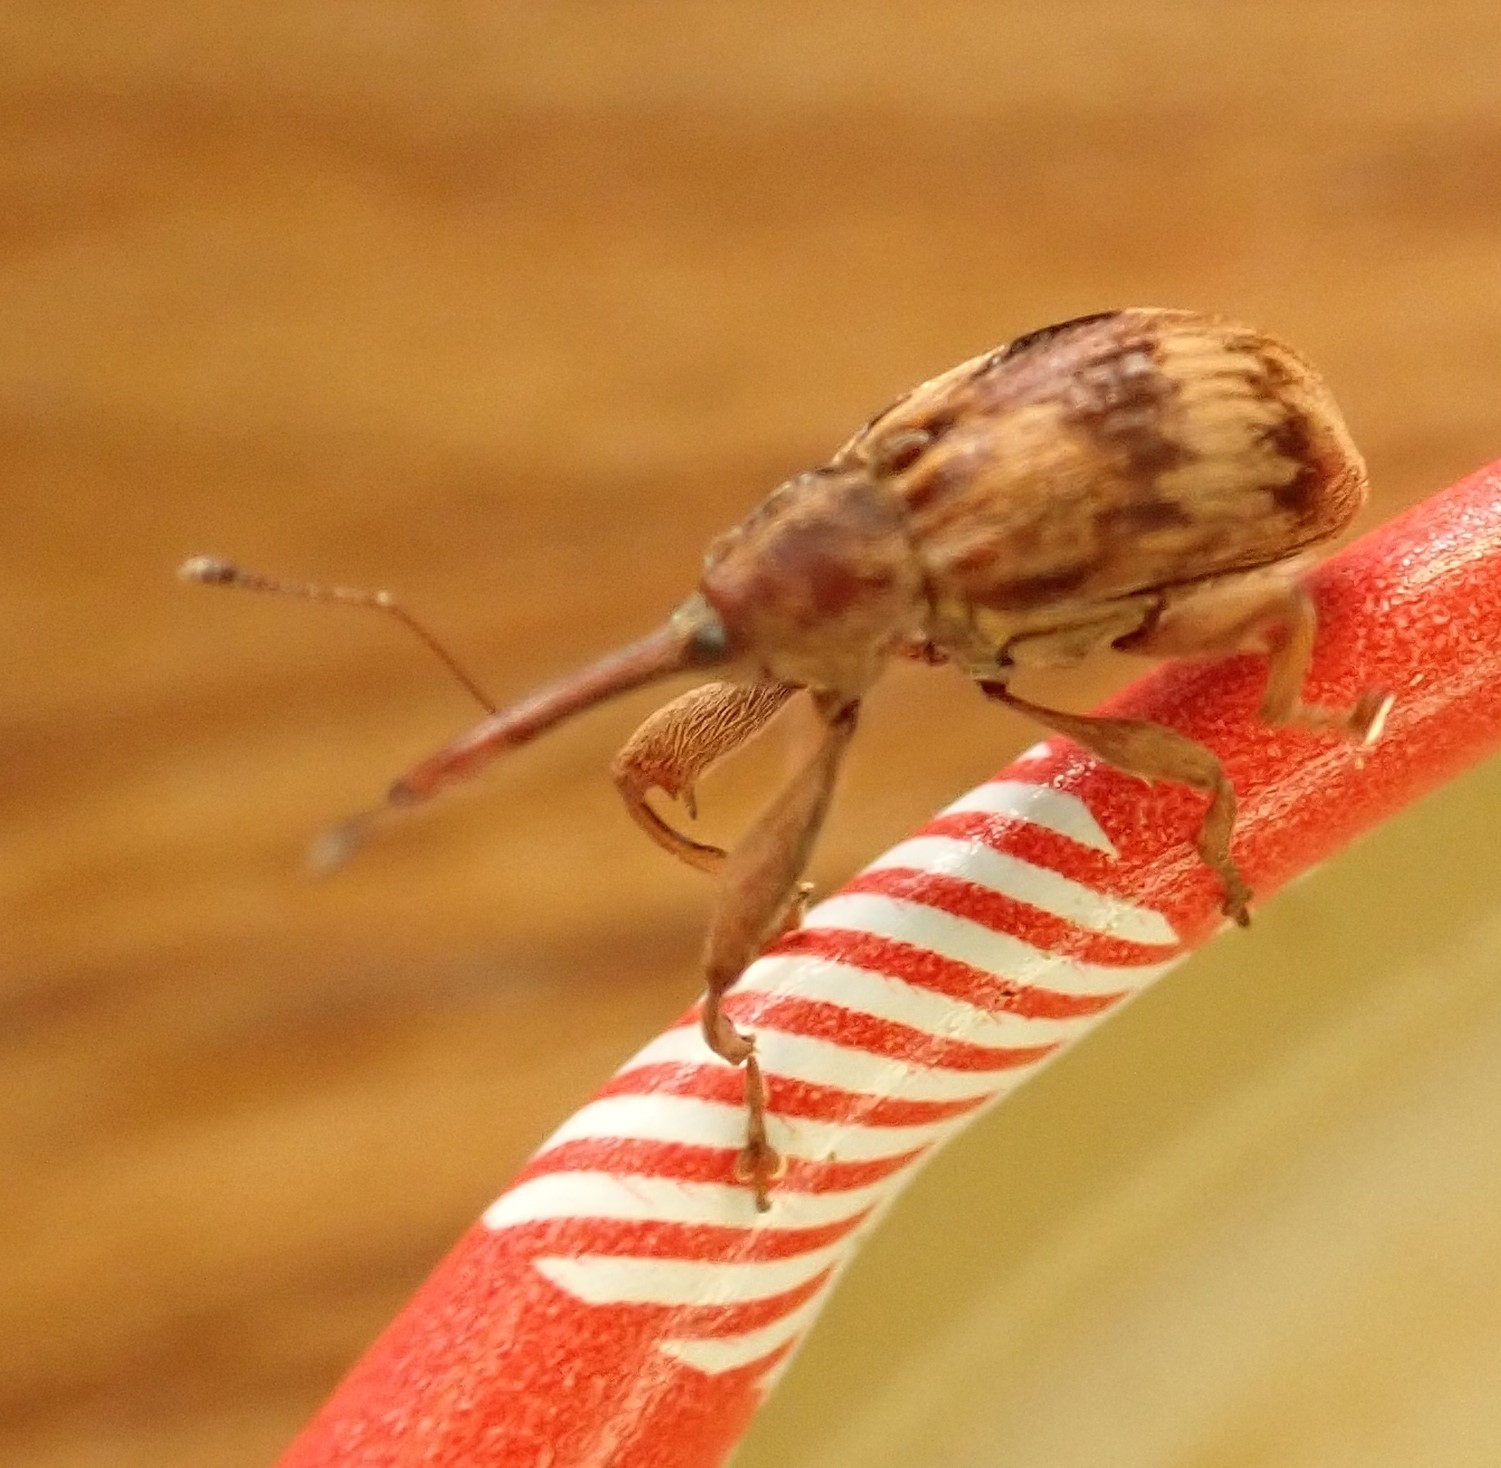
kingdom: Animalia
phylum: Arthropoda
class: Insecta
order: Coleoptera
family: Curculionidae
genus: Anthonomus
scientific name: Anthonomus rectirostris
